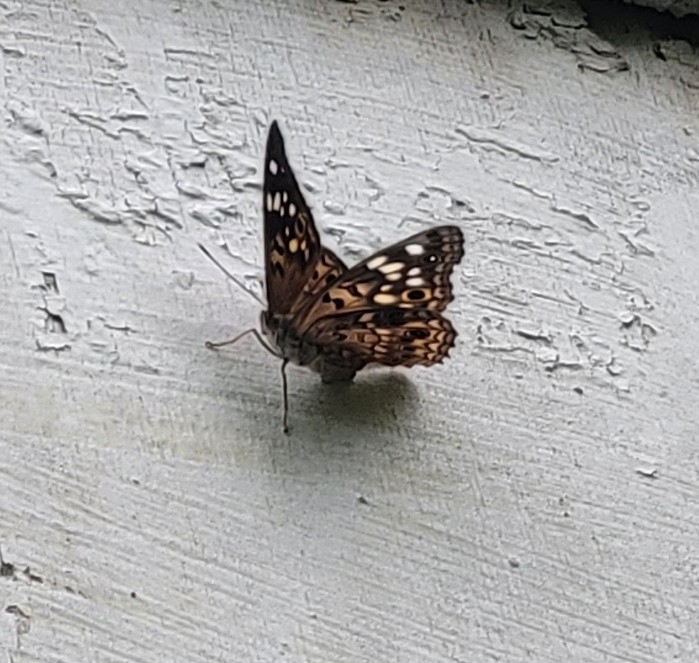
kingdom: Animalia
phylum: Arthropoda
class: Insecta
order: Lepidoptera
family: Nymphalidae
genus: Asterocampa
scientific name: Asterocampa celtis
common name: Hackberry emperor
